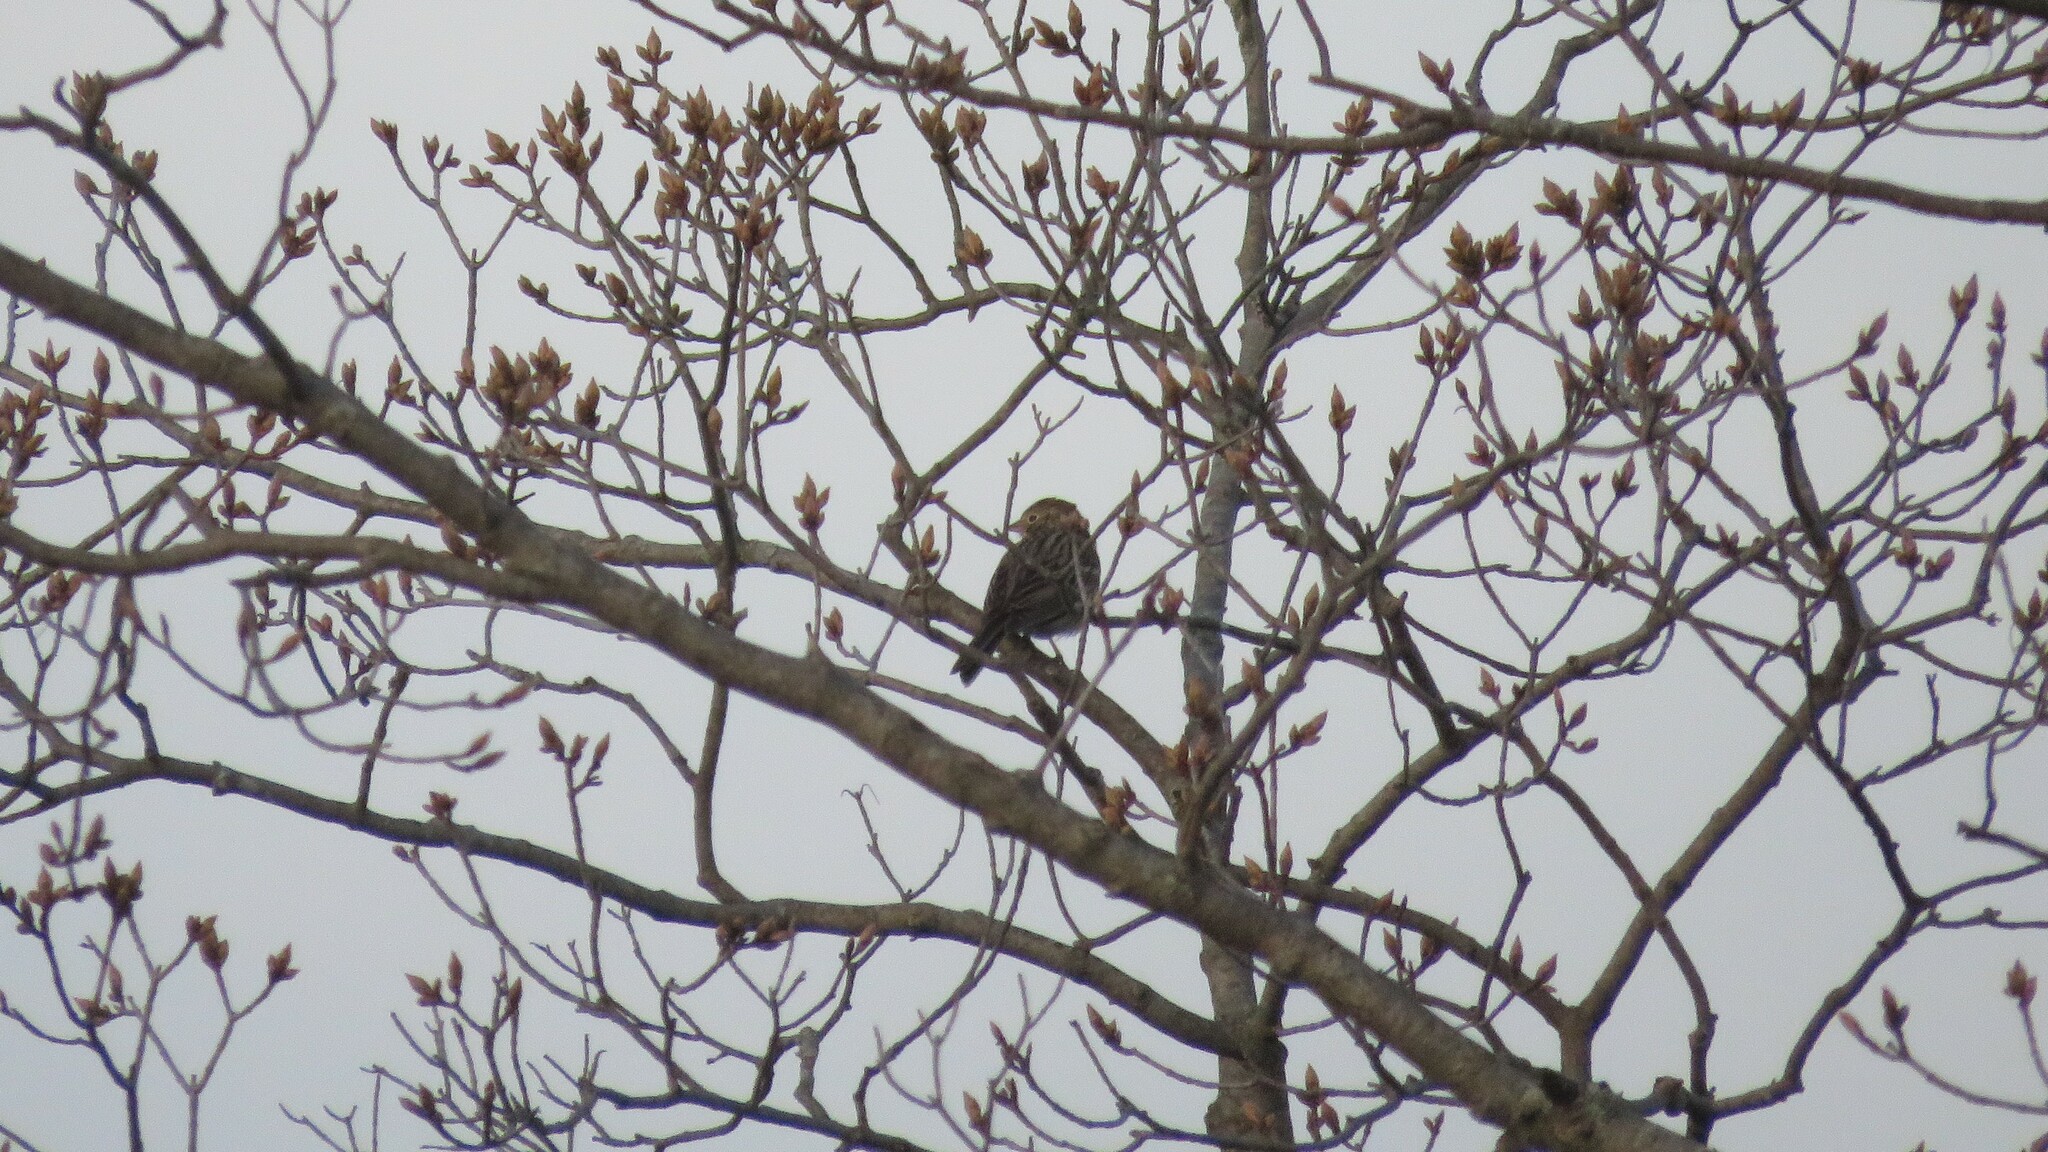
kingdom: Animalia
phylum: Chordata
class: Aves
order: Passeriformes
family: Passerellidae
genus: Pooecetes
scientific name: Pooecetes gramineus
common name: Vesper sparrow
